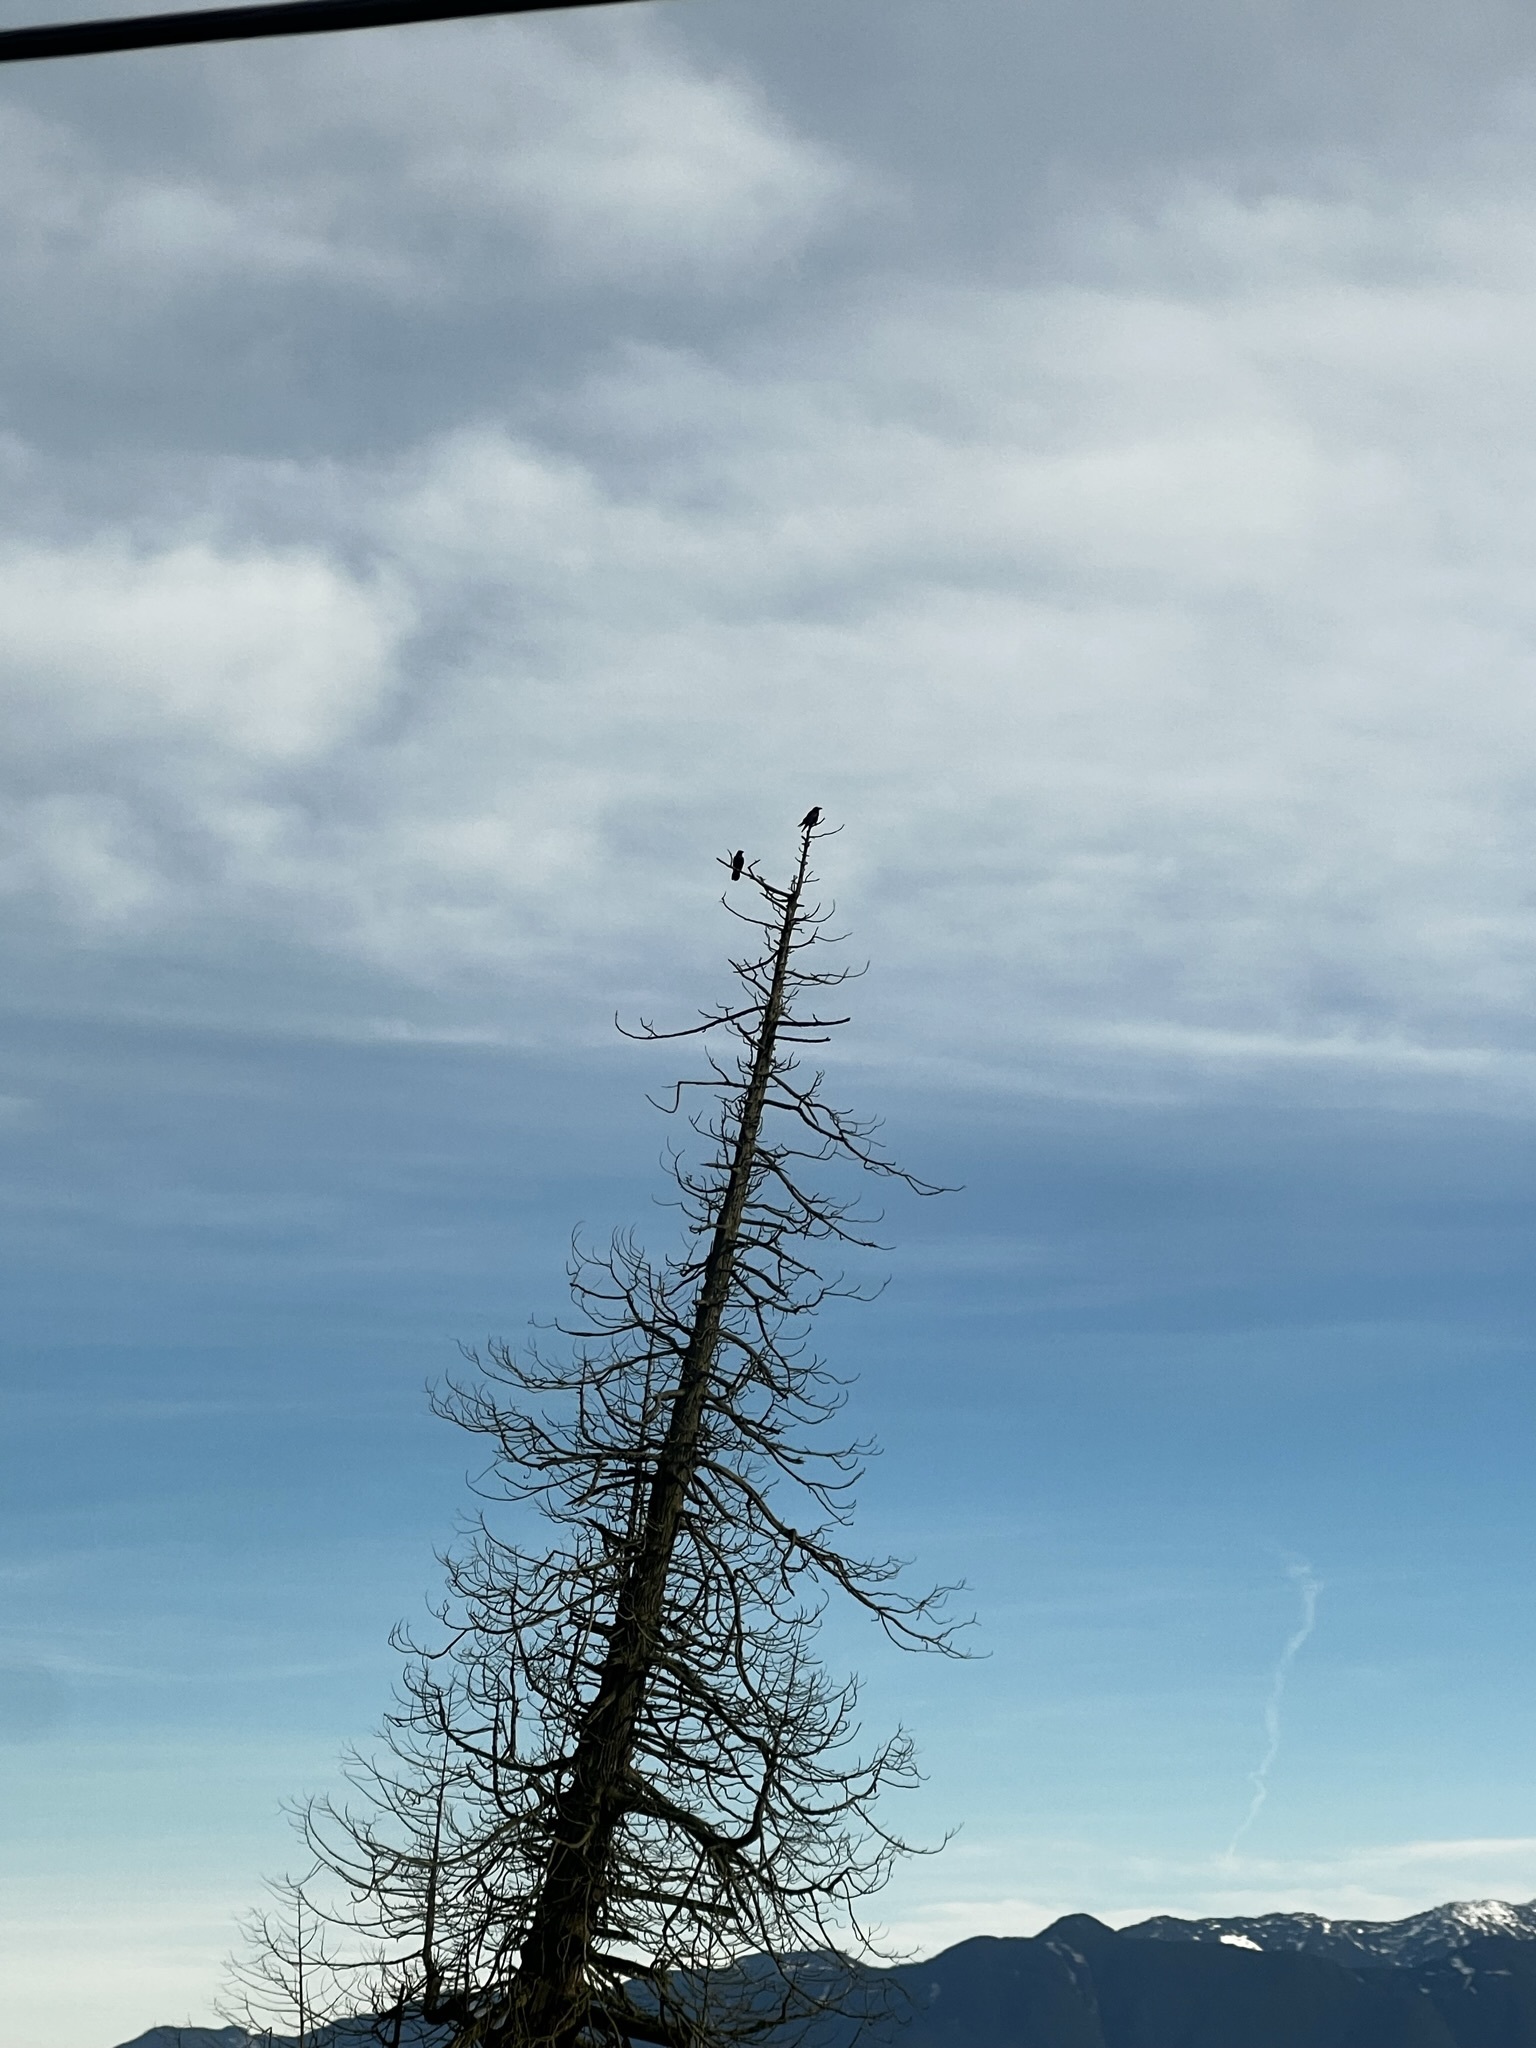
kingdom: Animalia
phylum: Chordata
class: Aves
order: Passeriformes
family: Corvidae
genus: Corvus
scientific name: Corvus corax
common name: Common raven
